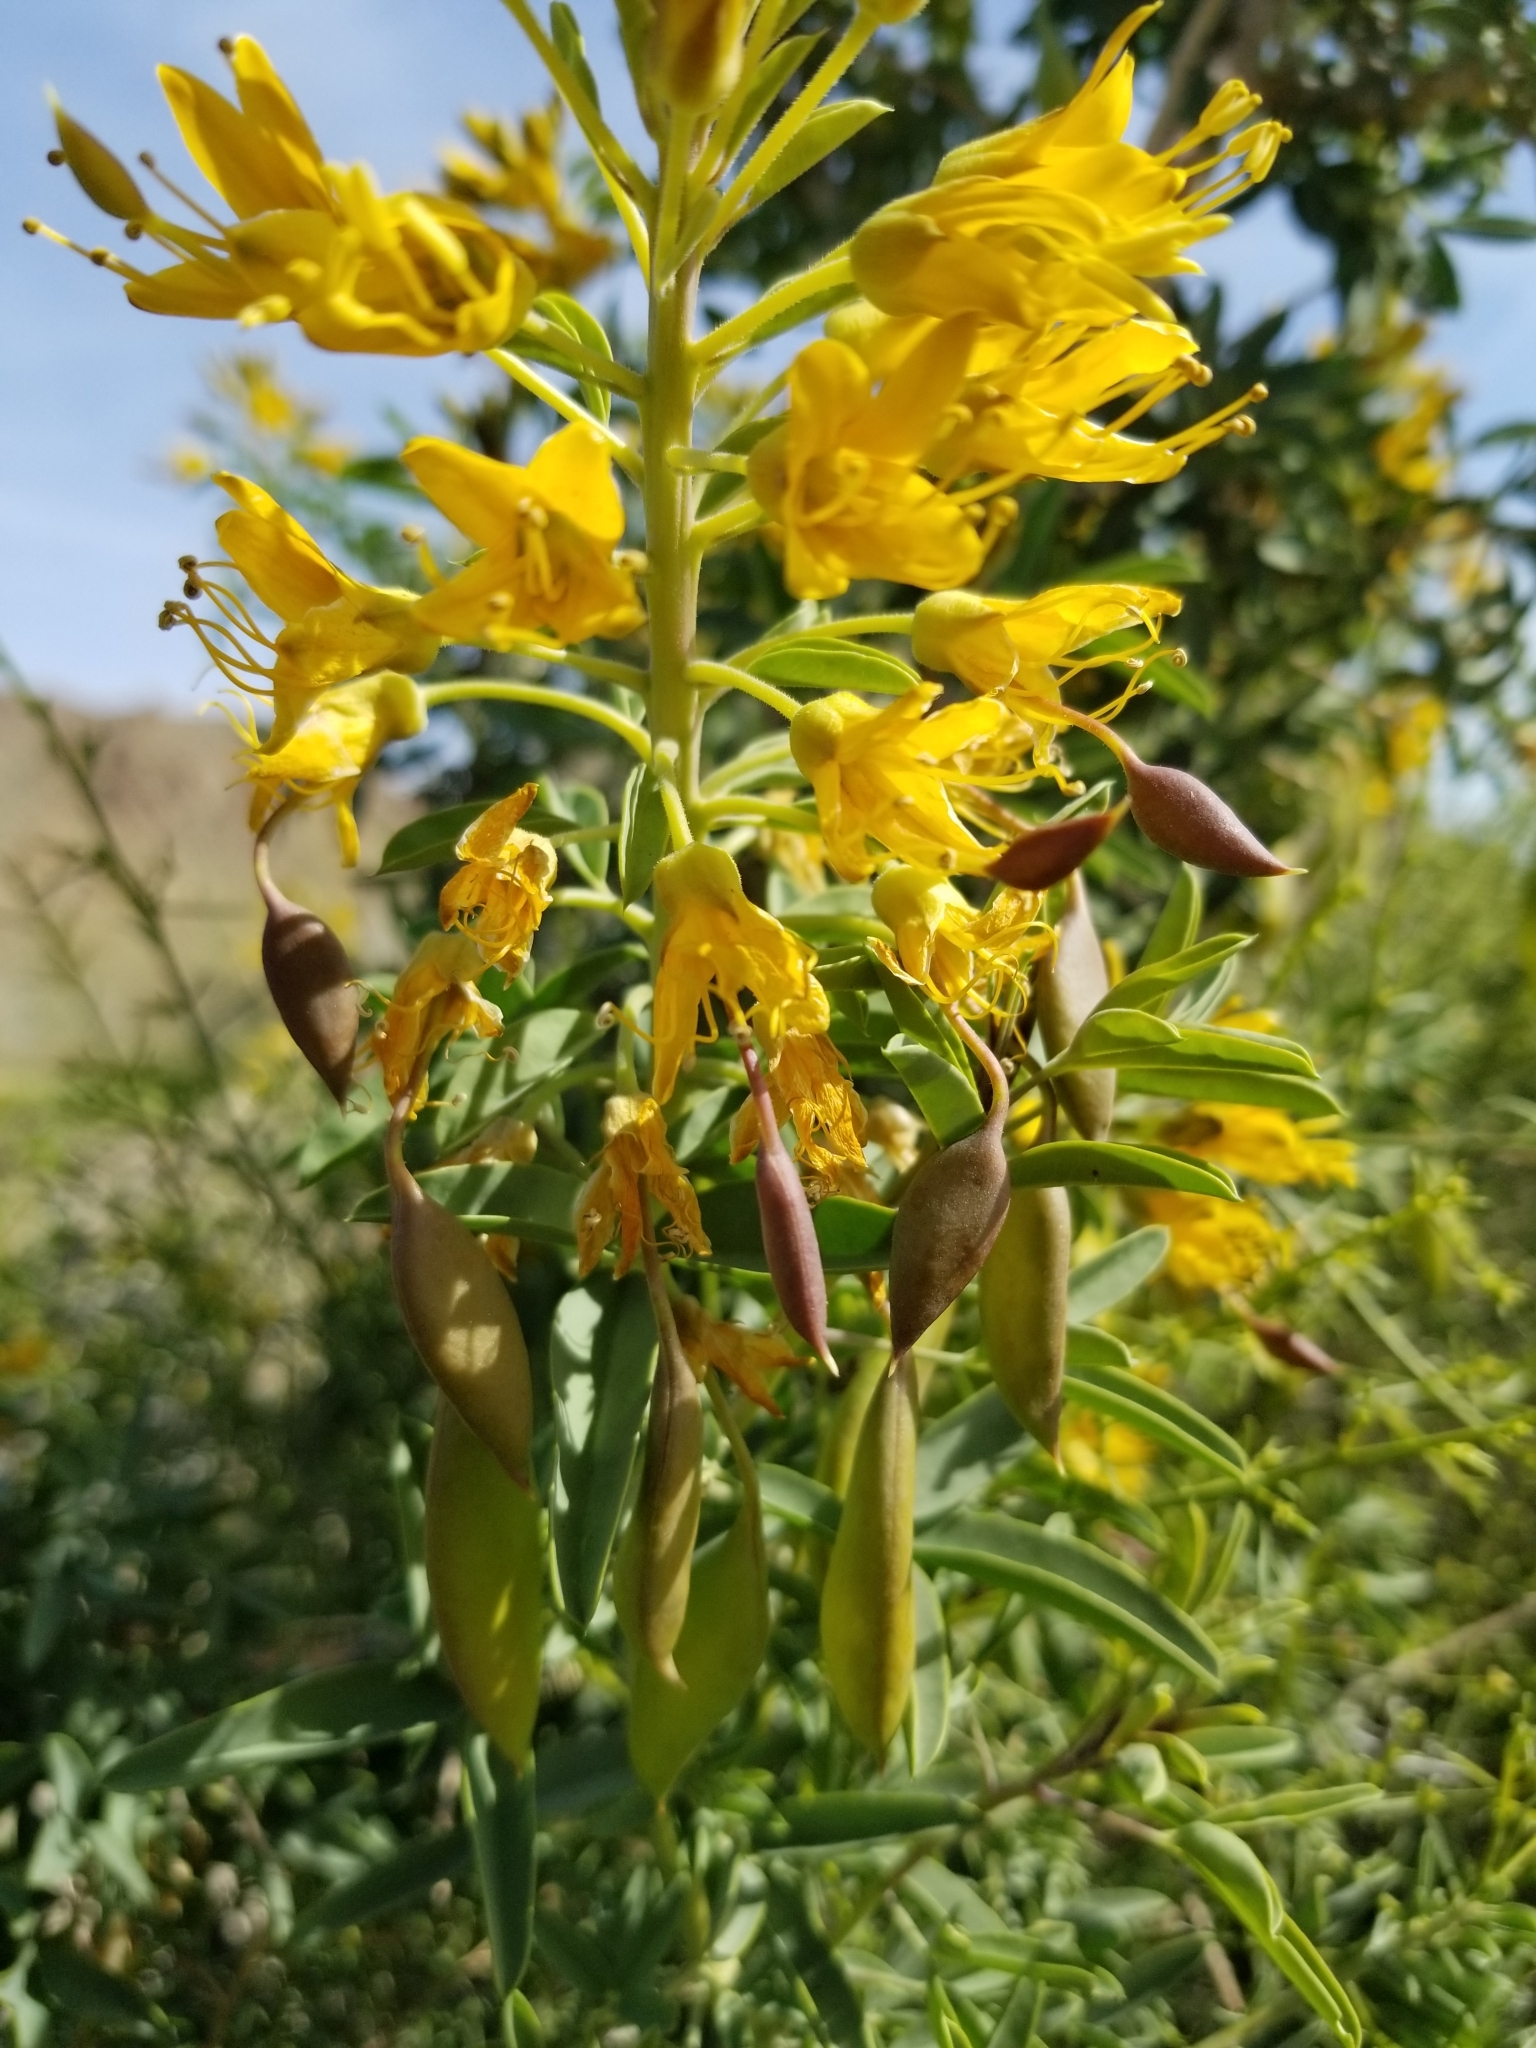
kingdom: Plantae
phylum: Tracheophyta
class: Magnoliopsida
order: Brassicales
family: Cleomaceae
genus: Cleomella
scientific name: Cleomella arborea
